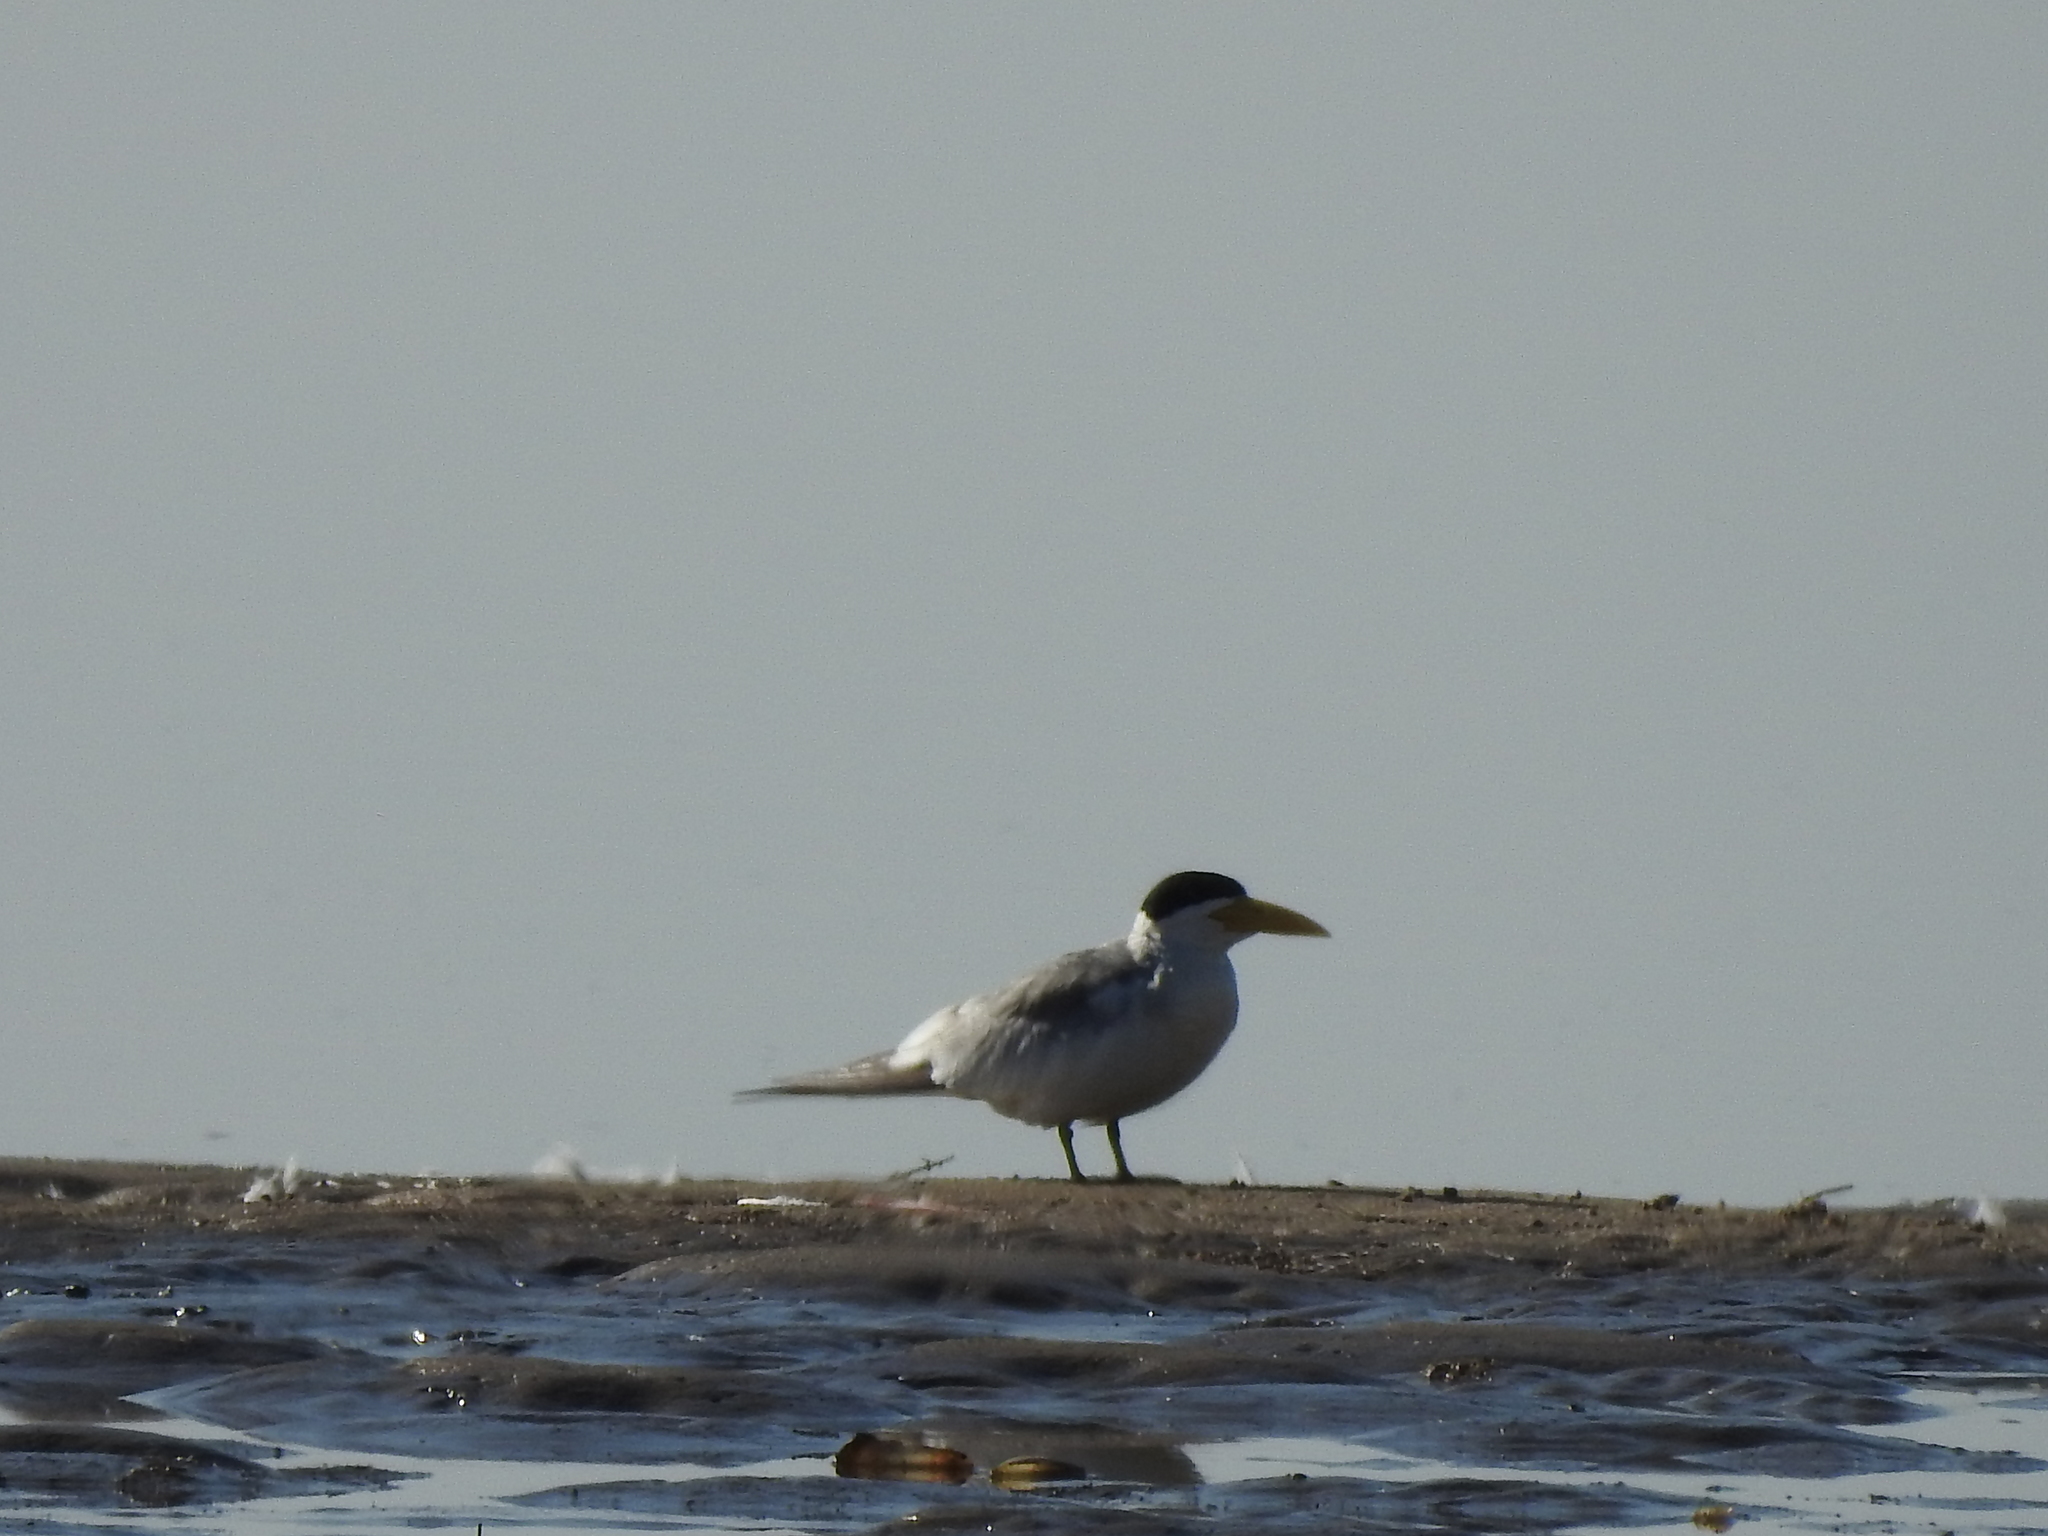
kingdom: Animalia
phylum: Chordata
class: Aves
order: Charadriiformes
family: Laridae
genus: Phaetusa
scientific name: Phaetusa simplex
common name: Large-billed tern
